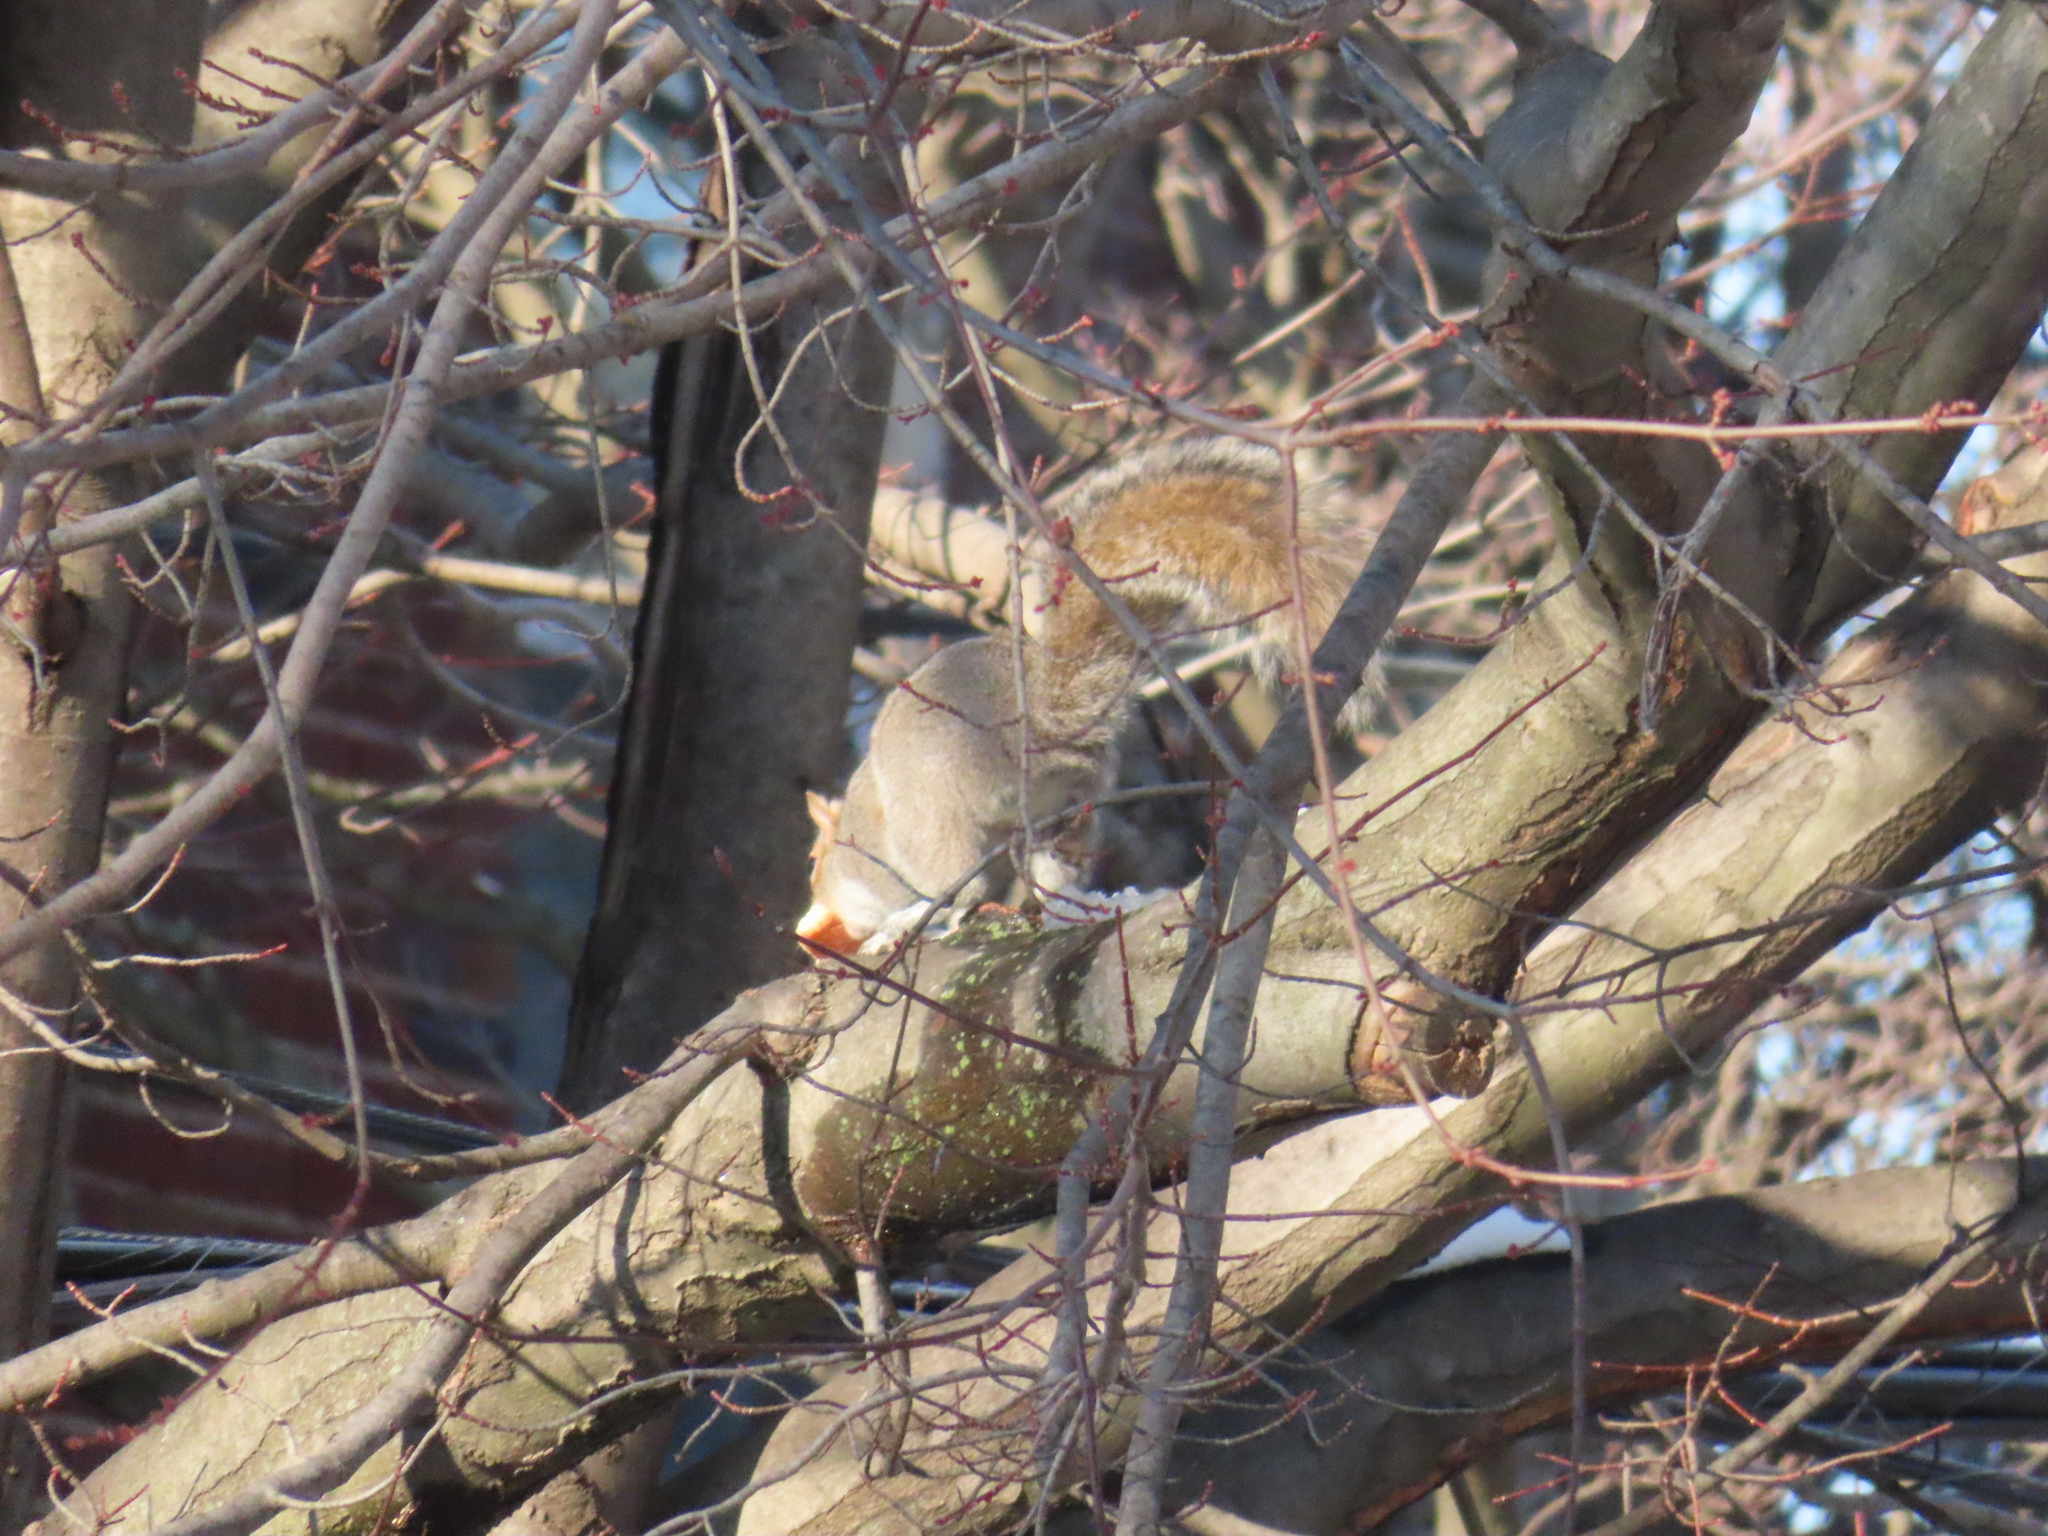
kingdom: Animalia
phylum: Chordata
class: Mammalia
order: Rodentia
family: Sciuridae
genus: Sciurus
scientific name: Sciurus carolinensis
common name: Eastern gray squirrel
